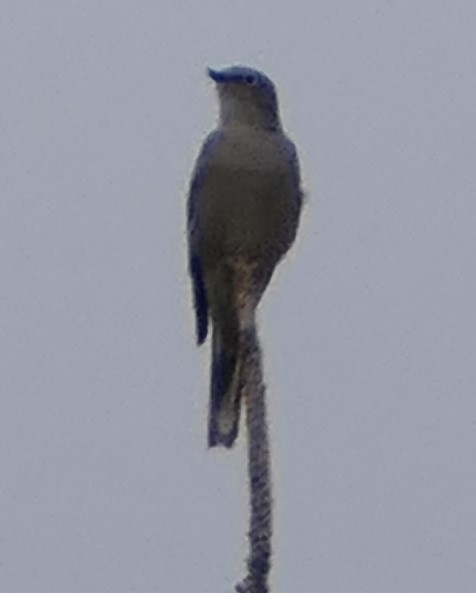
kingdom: Animalia
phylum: Chordata
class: Aves
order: Passeriformes
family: Turdidae
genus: Myadestes
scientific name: Myadestes townsendi
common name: Townsend's solitaire
